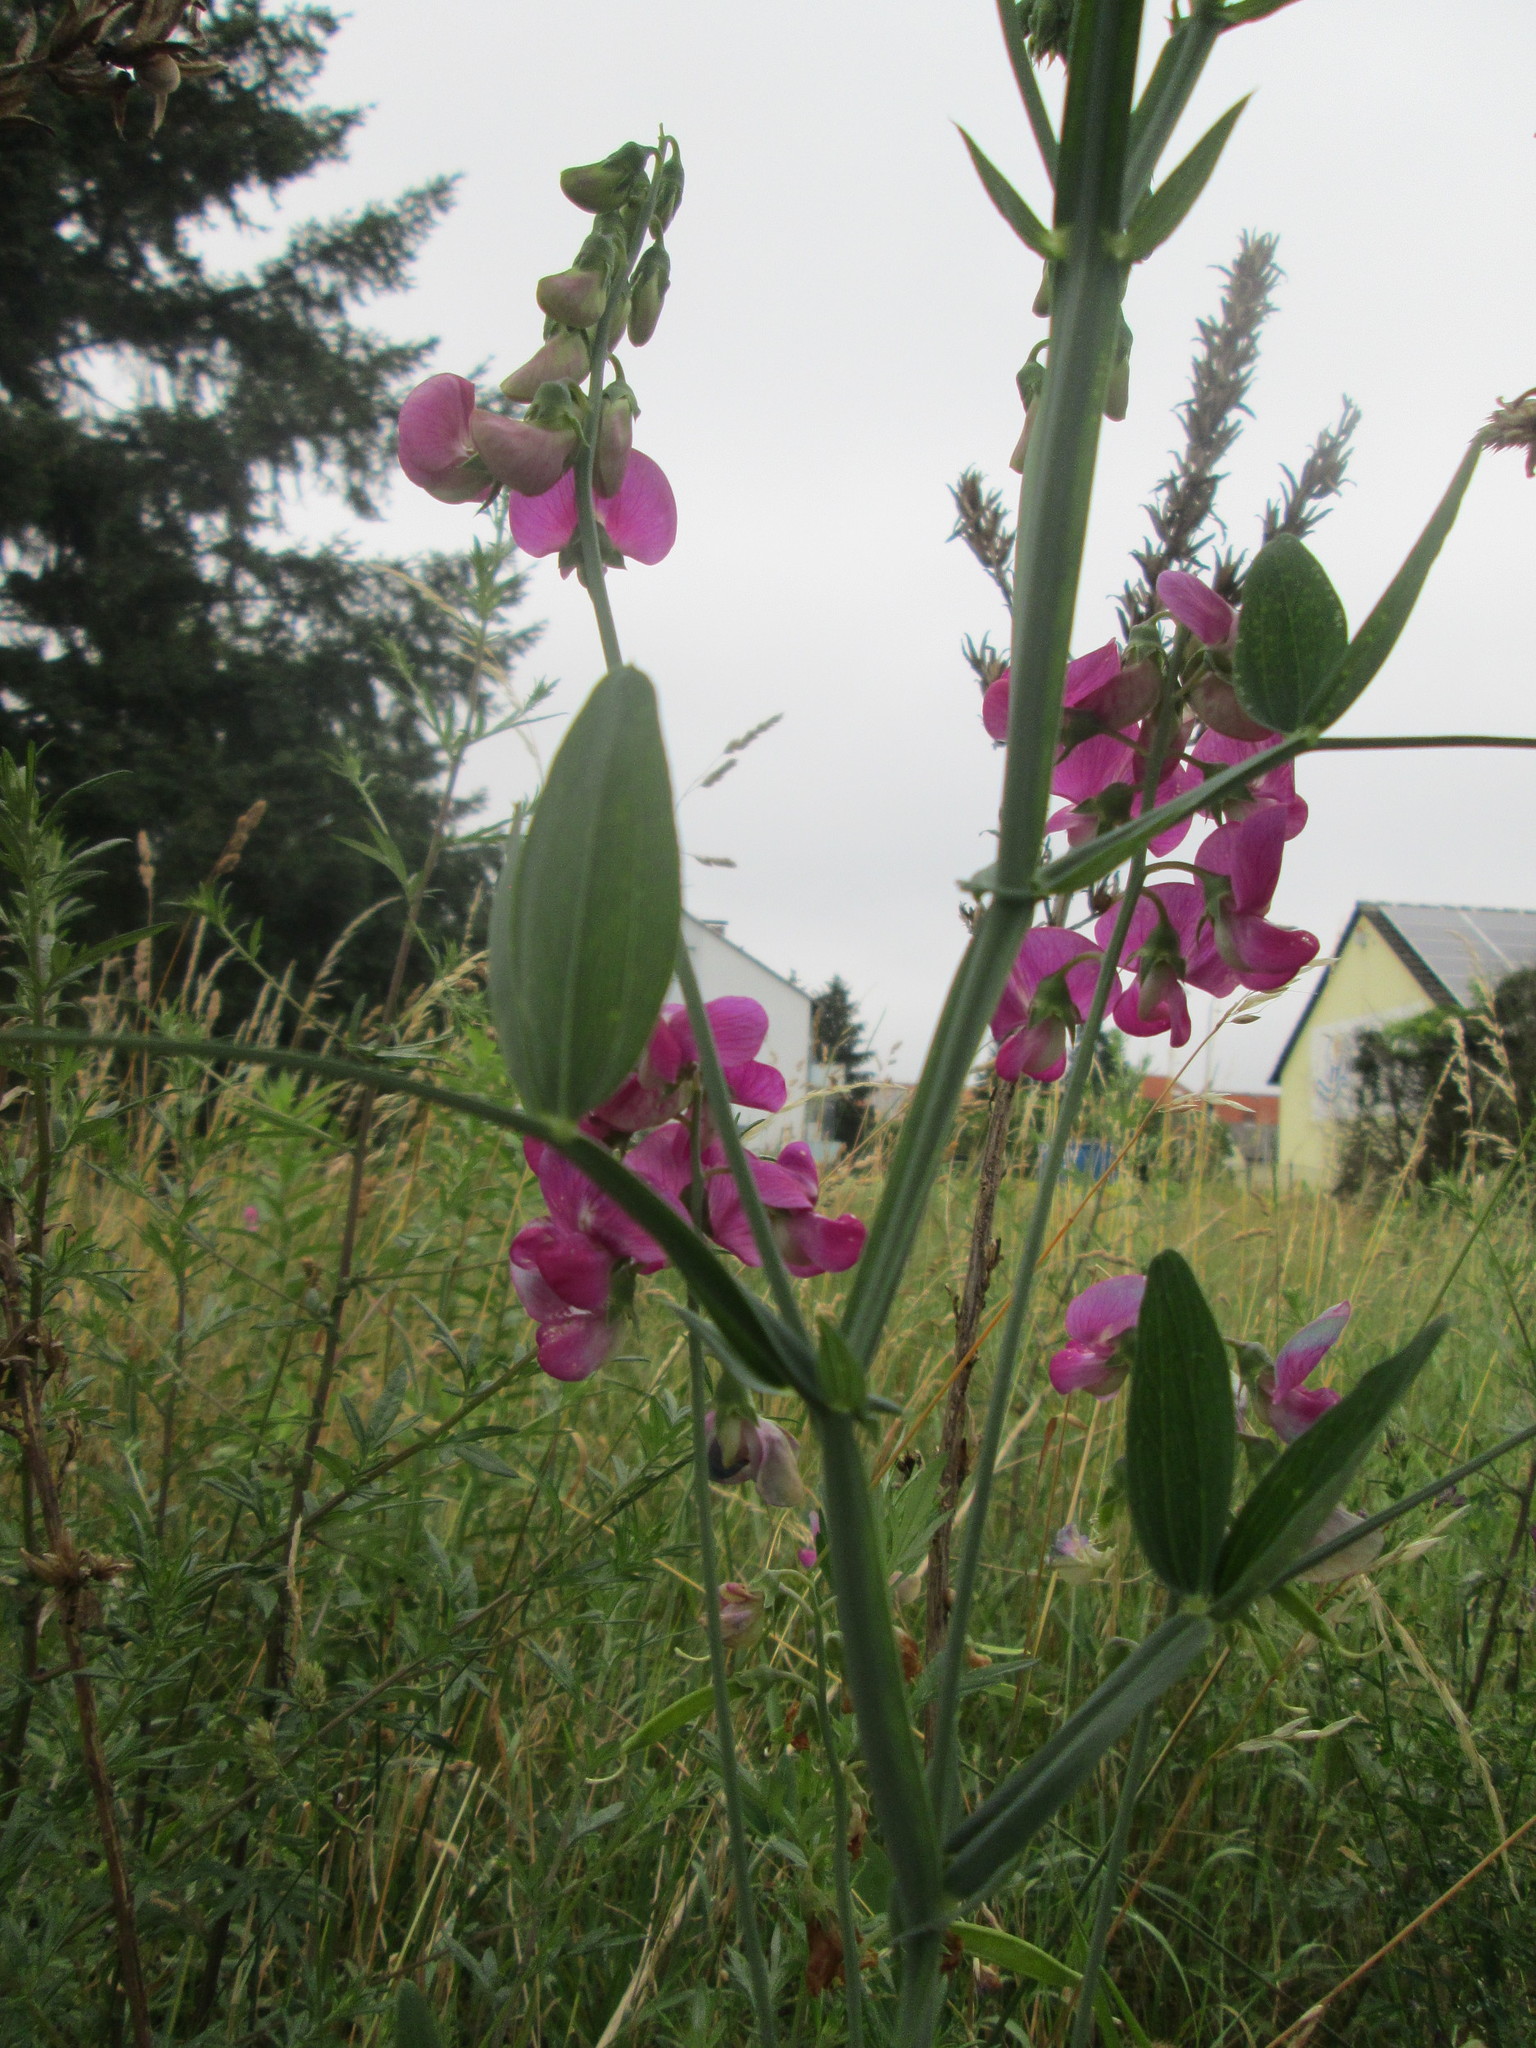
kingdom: Plantae
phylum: Tracheophyta
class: Magnoliopsida
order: Fabales
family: Fabaceae
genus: Lathyrus
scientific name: Lathyrus latifolius
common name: Perennial pea
